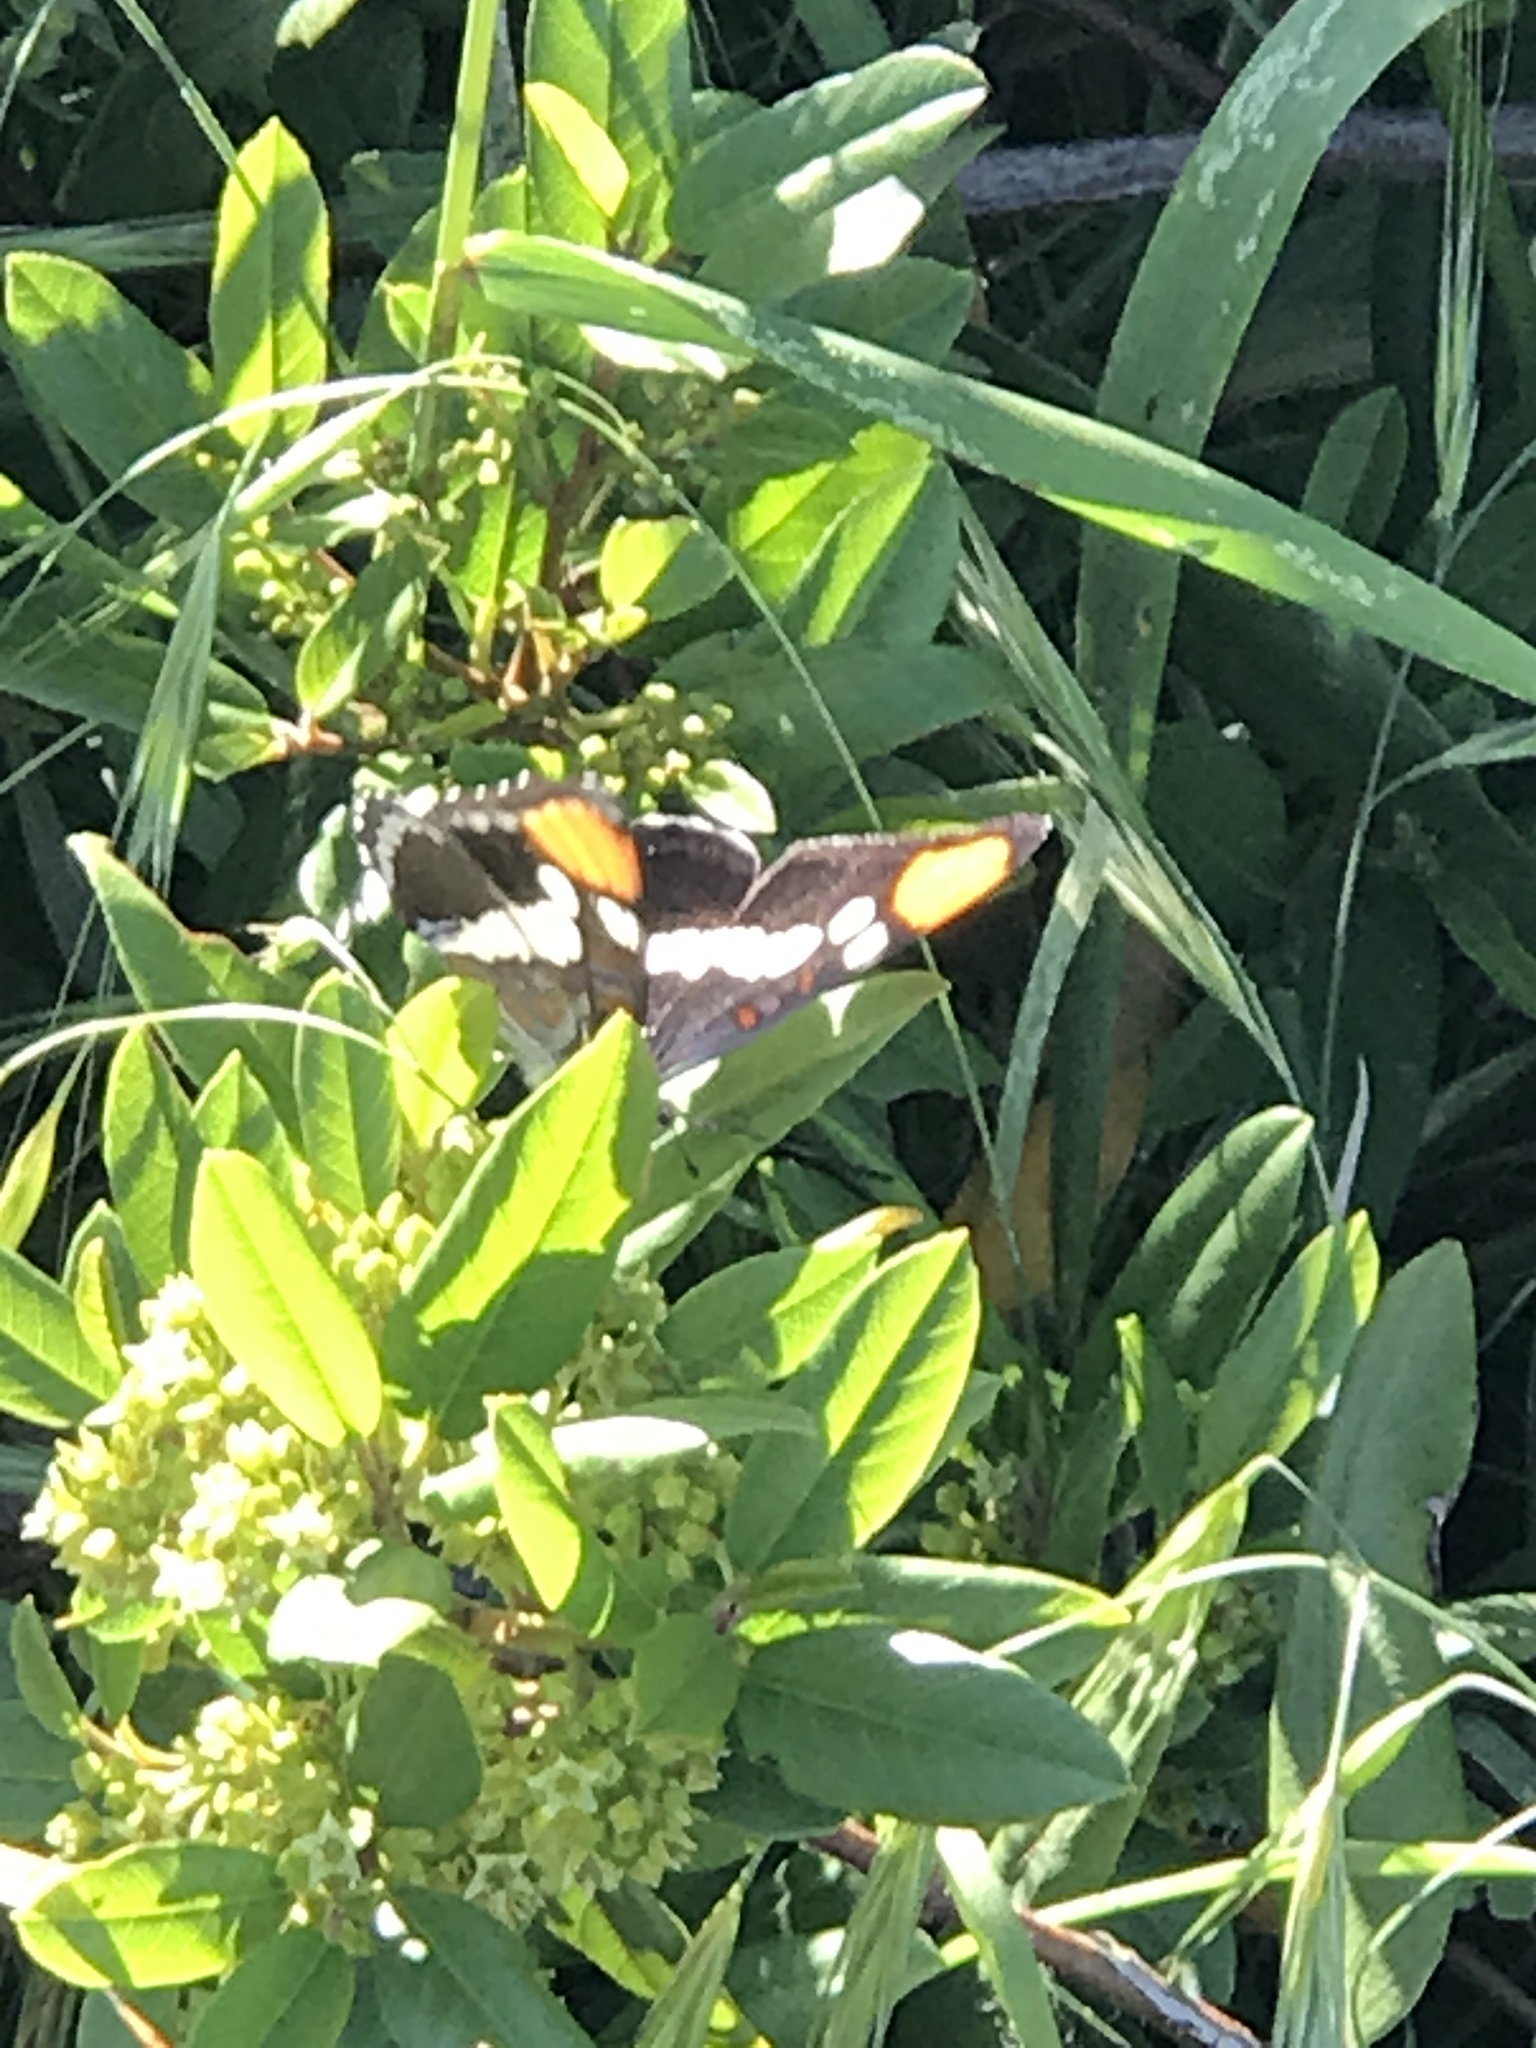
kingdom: Animalia
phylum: Arthropoda
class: Insecta
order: Lepidoptera
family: Nymphalidae
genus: Limenitis
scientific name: Limenitis bredowii
